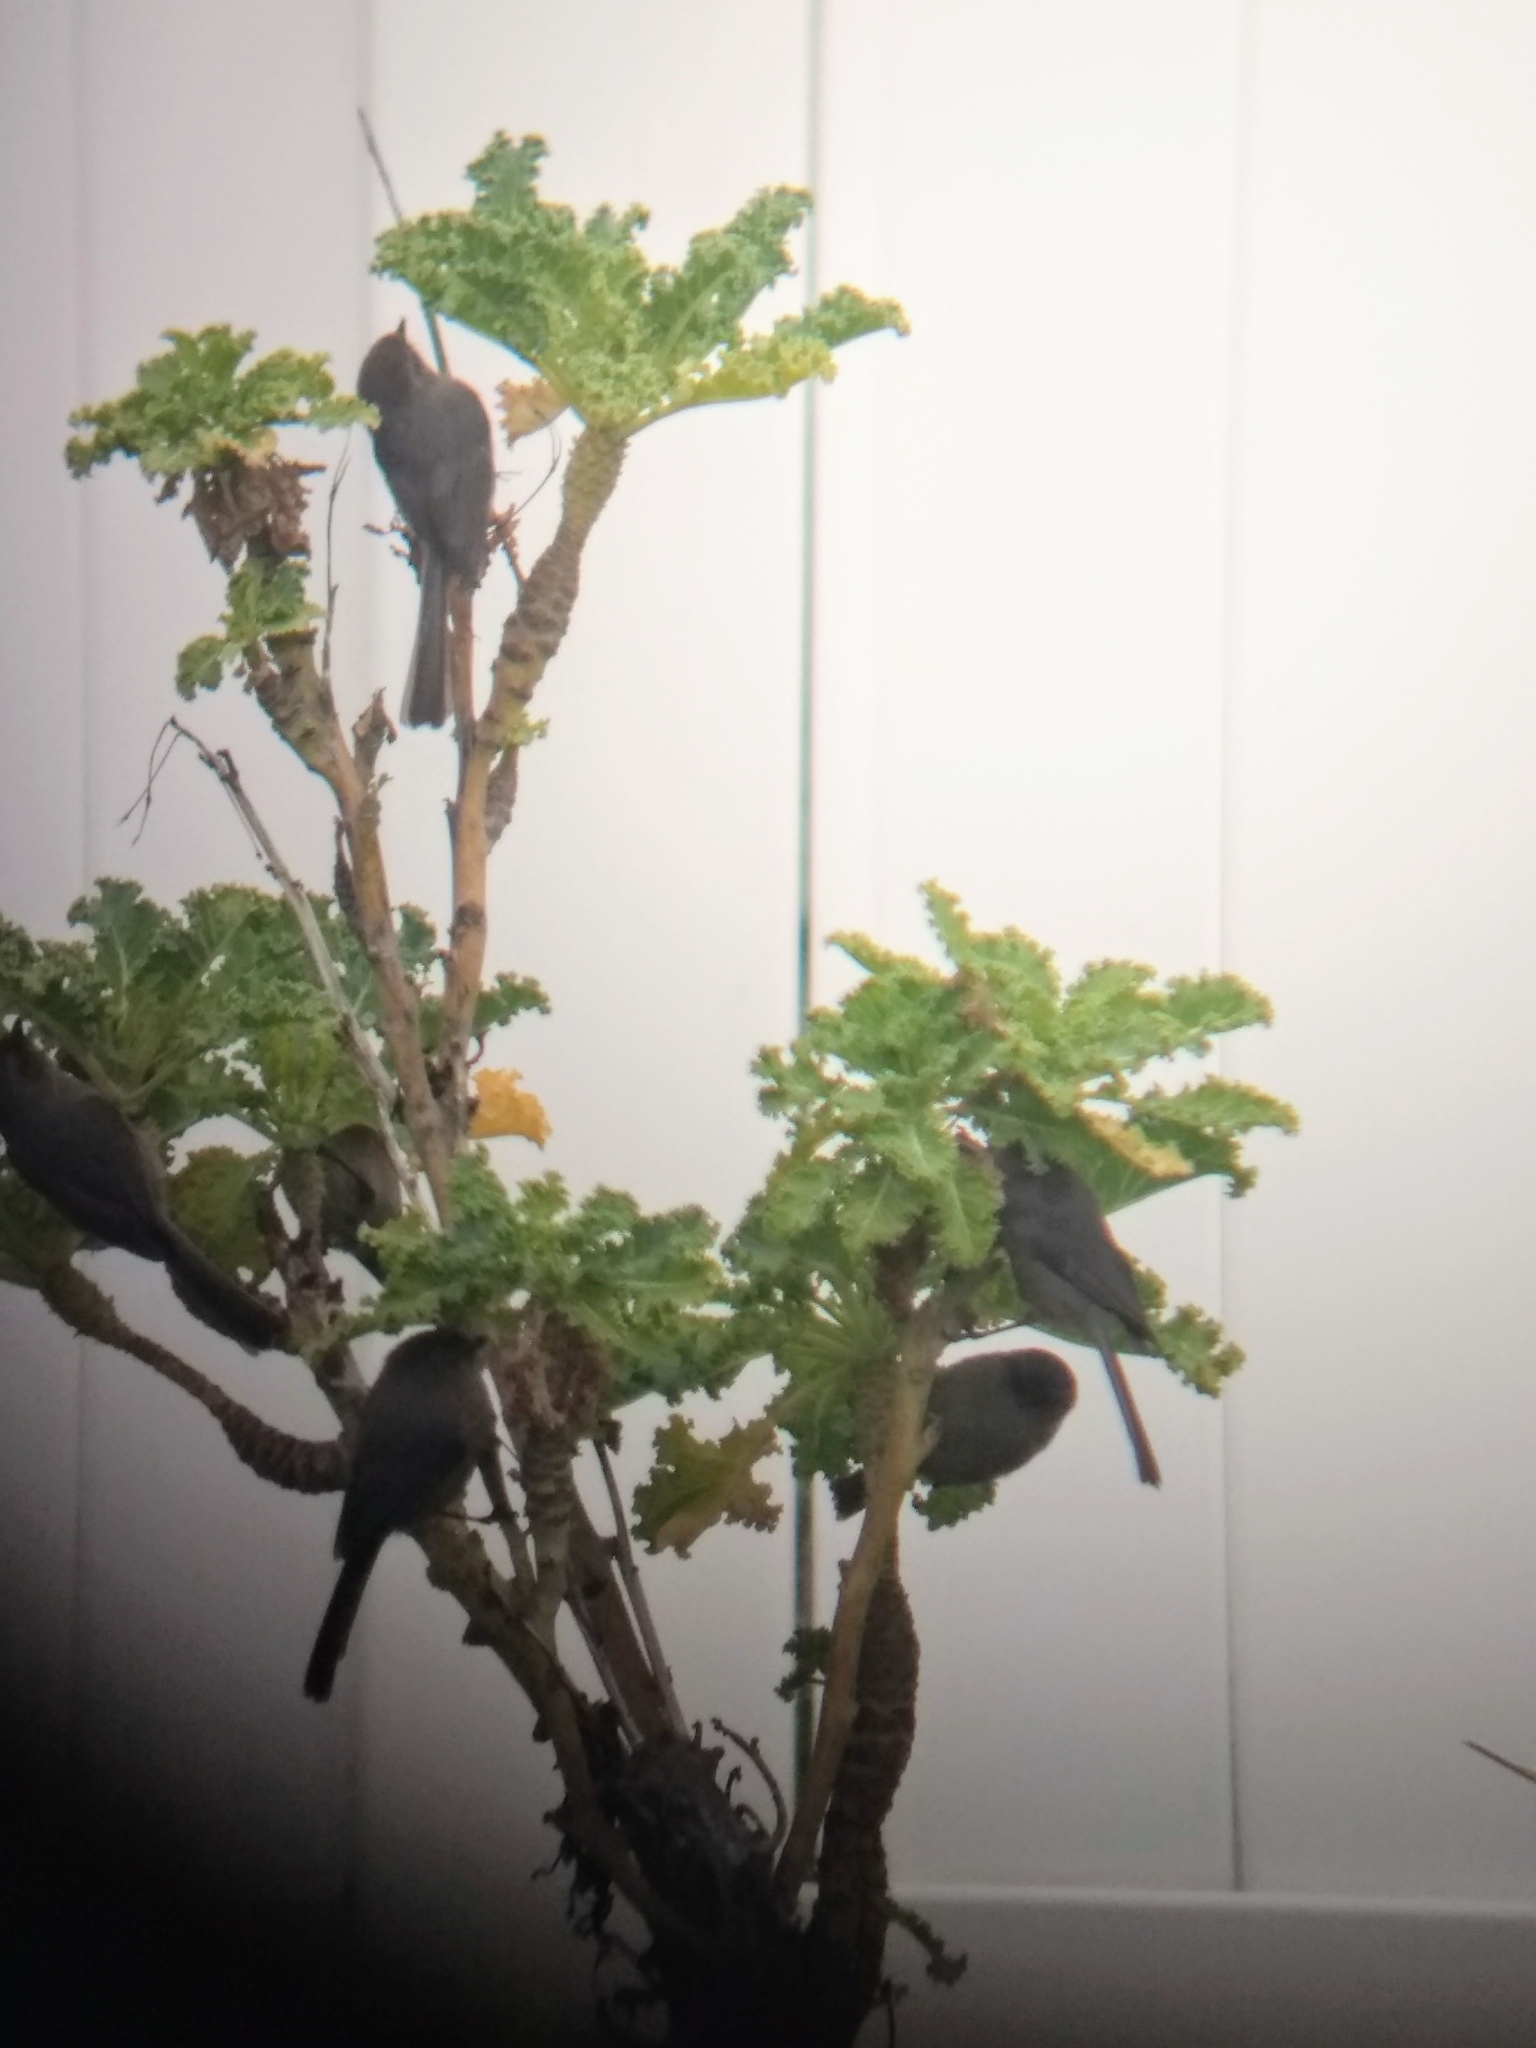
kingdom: Animalia
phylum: Chordata
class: Aves
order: Passeriformes
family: Aegithalidae
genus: Psaltriparus
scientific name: Psaltriparus minimus
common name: American bushtit
